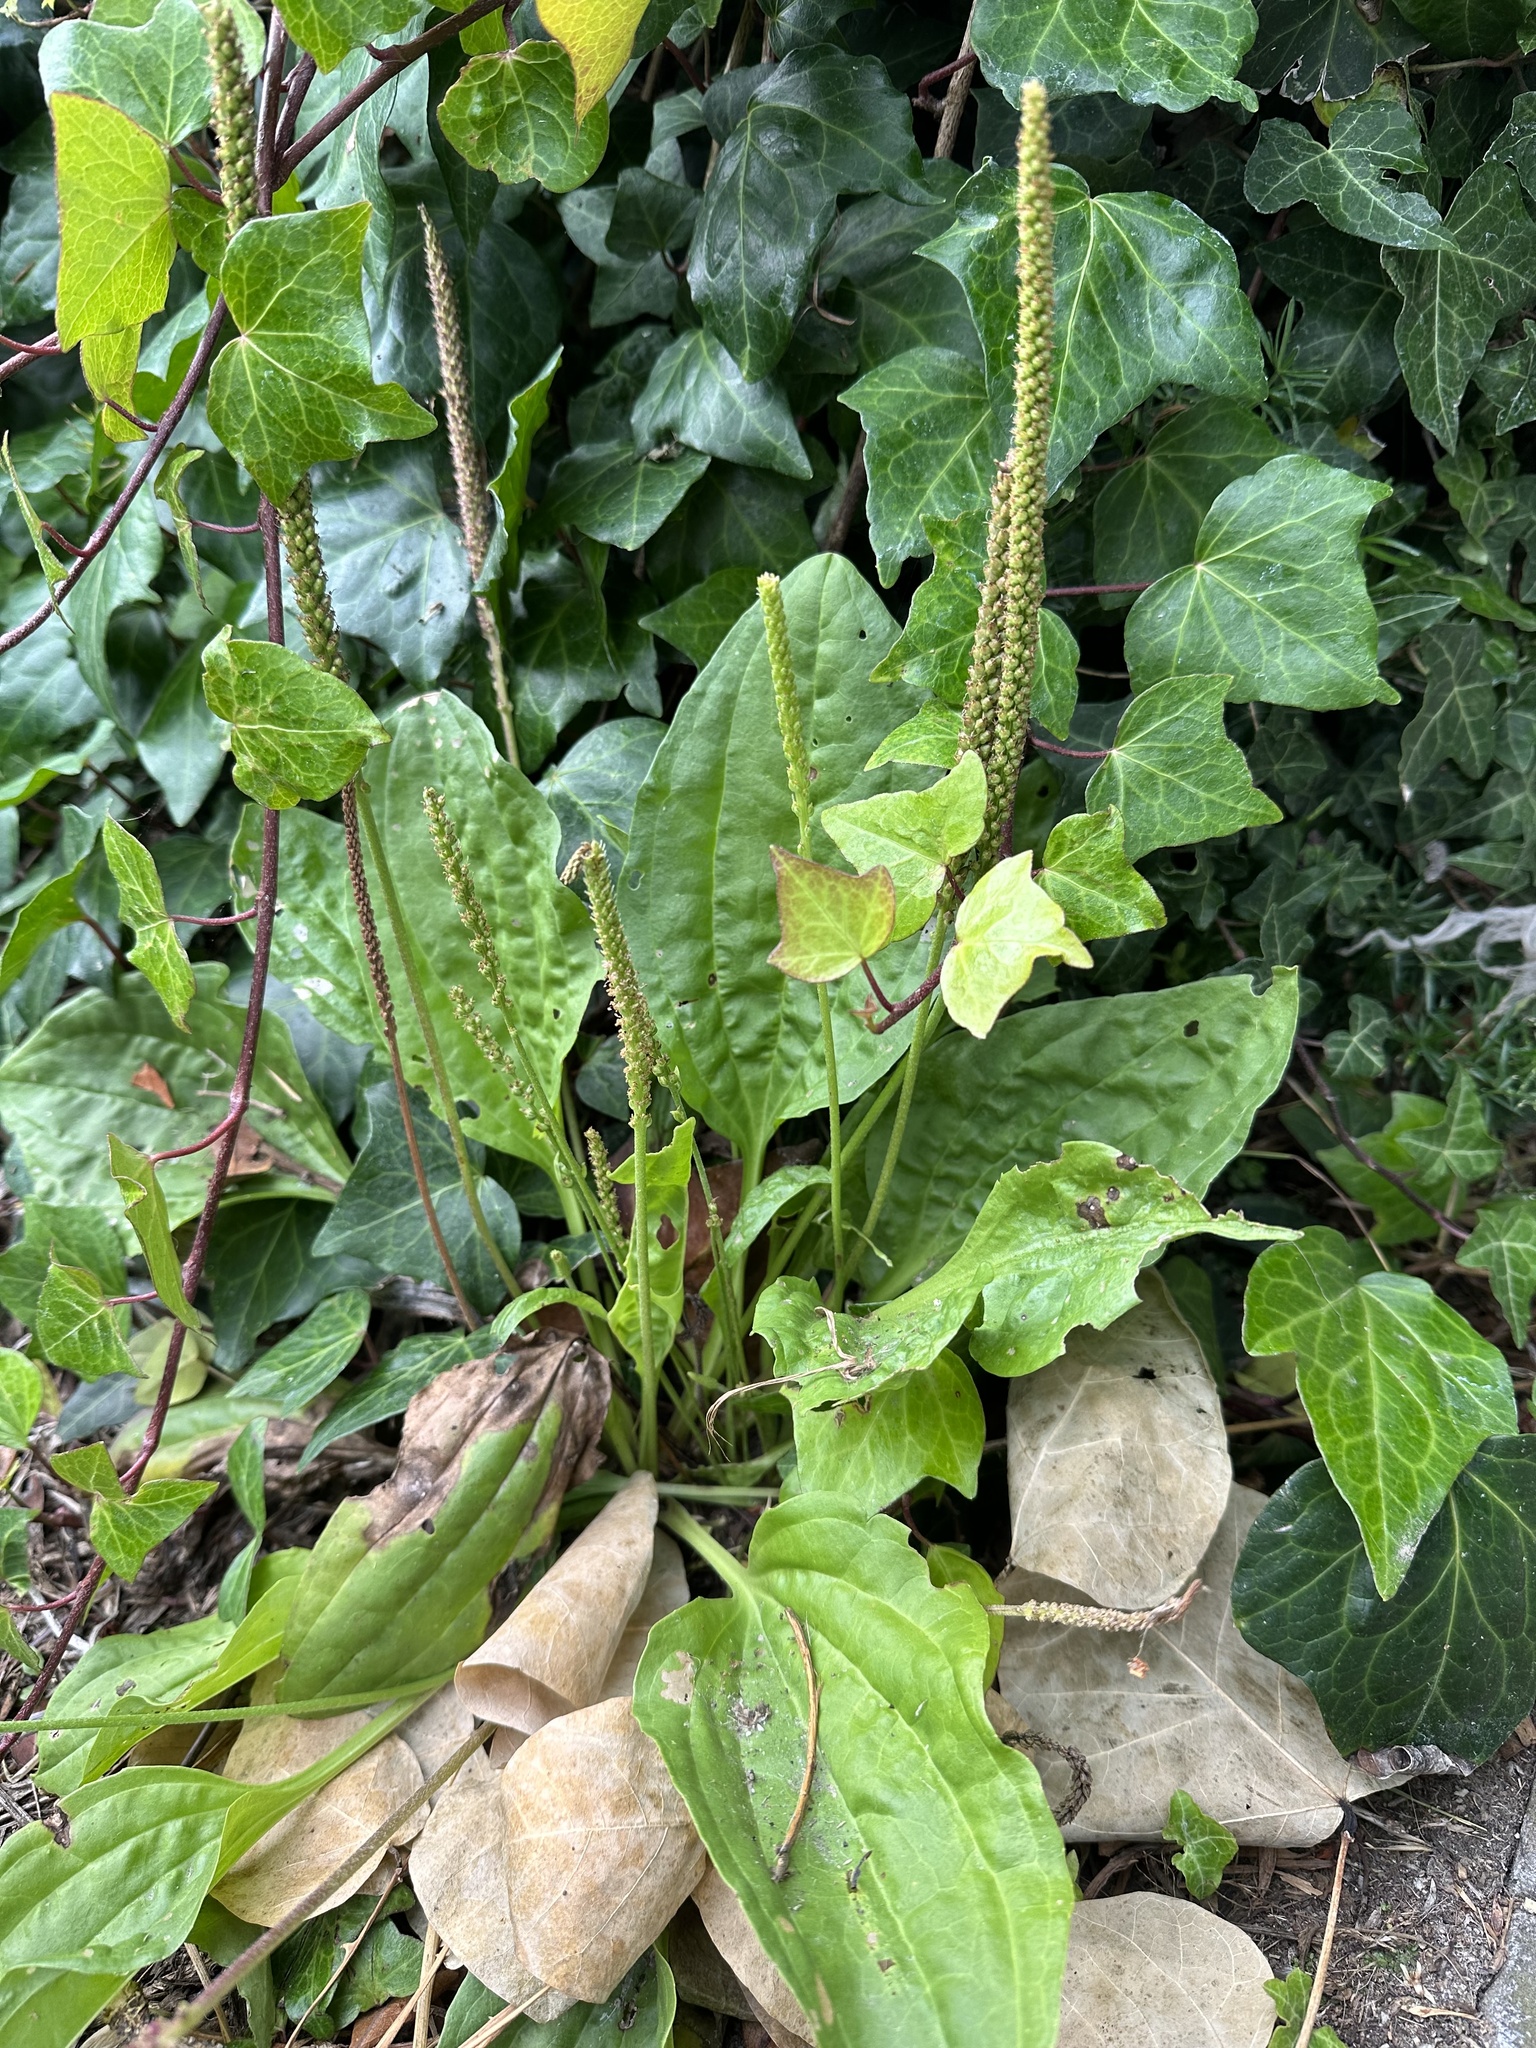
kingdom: Plantae
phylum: Tracheophyta
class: Magnoliopsida
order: Lamiales
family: Plantaginaceae
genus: Plantago
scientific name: Plantago major
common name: Common plantain
